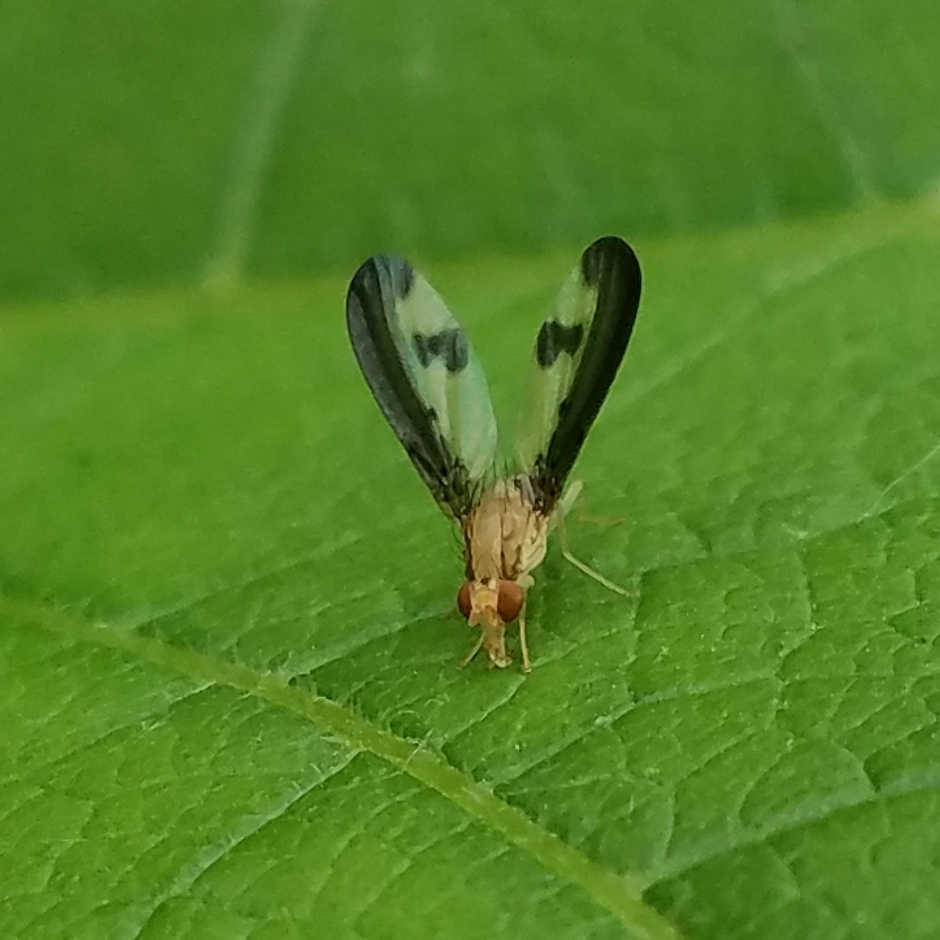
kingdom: Animalia
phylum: Arthropoda
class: Insecta
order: Diptera
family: Pallopteridae
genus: Toxonevra
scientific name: Toxonevra superba
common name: Antlered flutter fly
